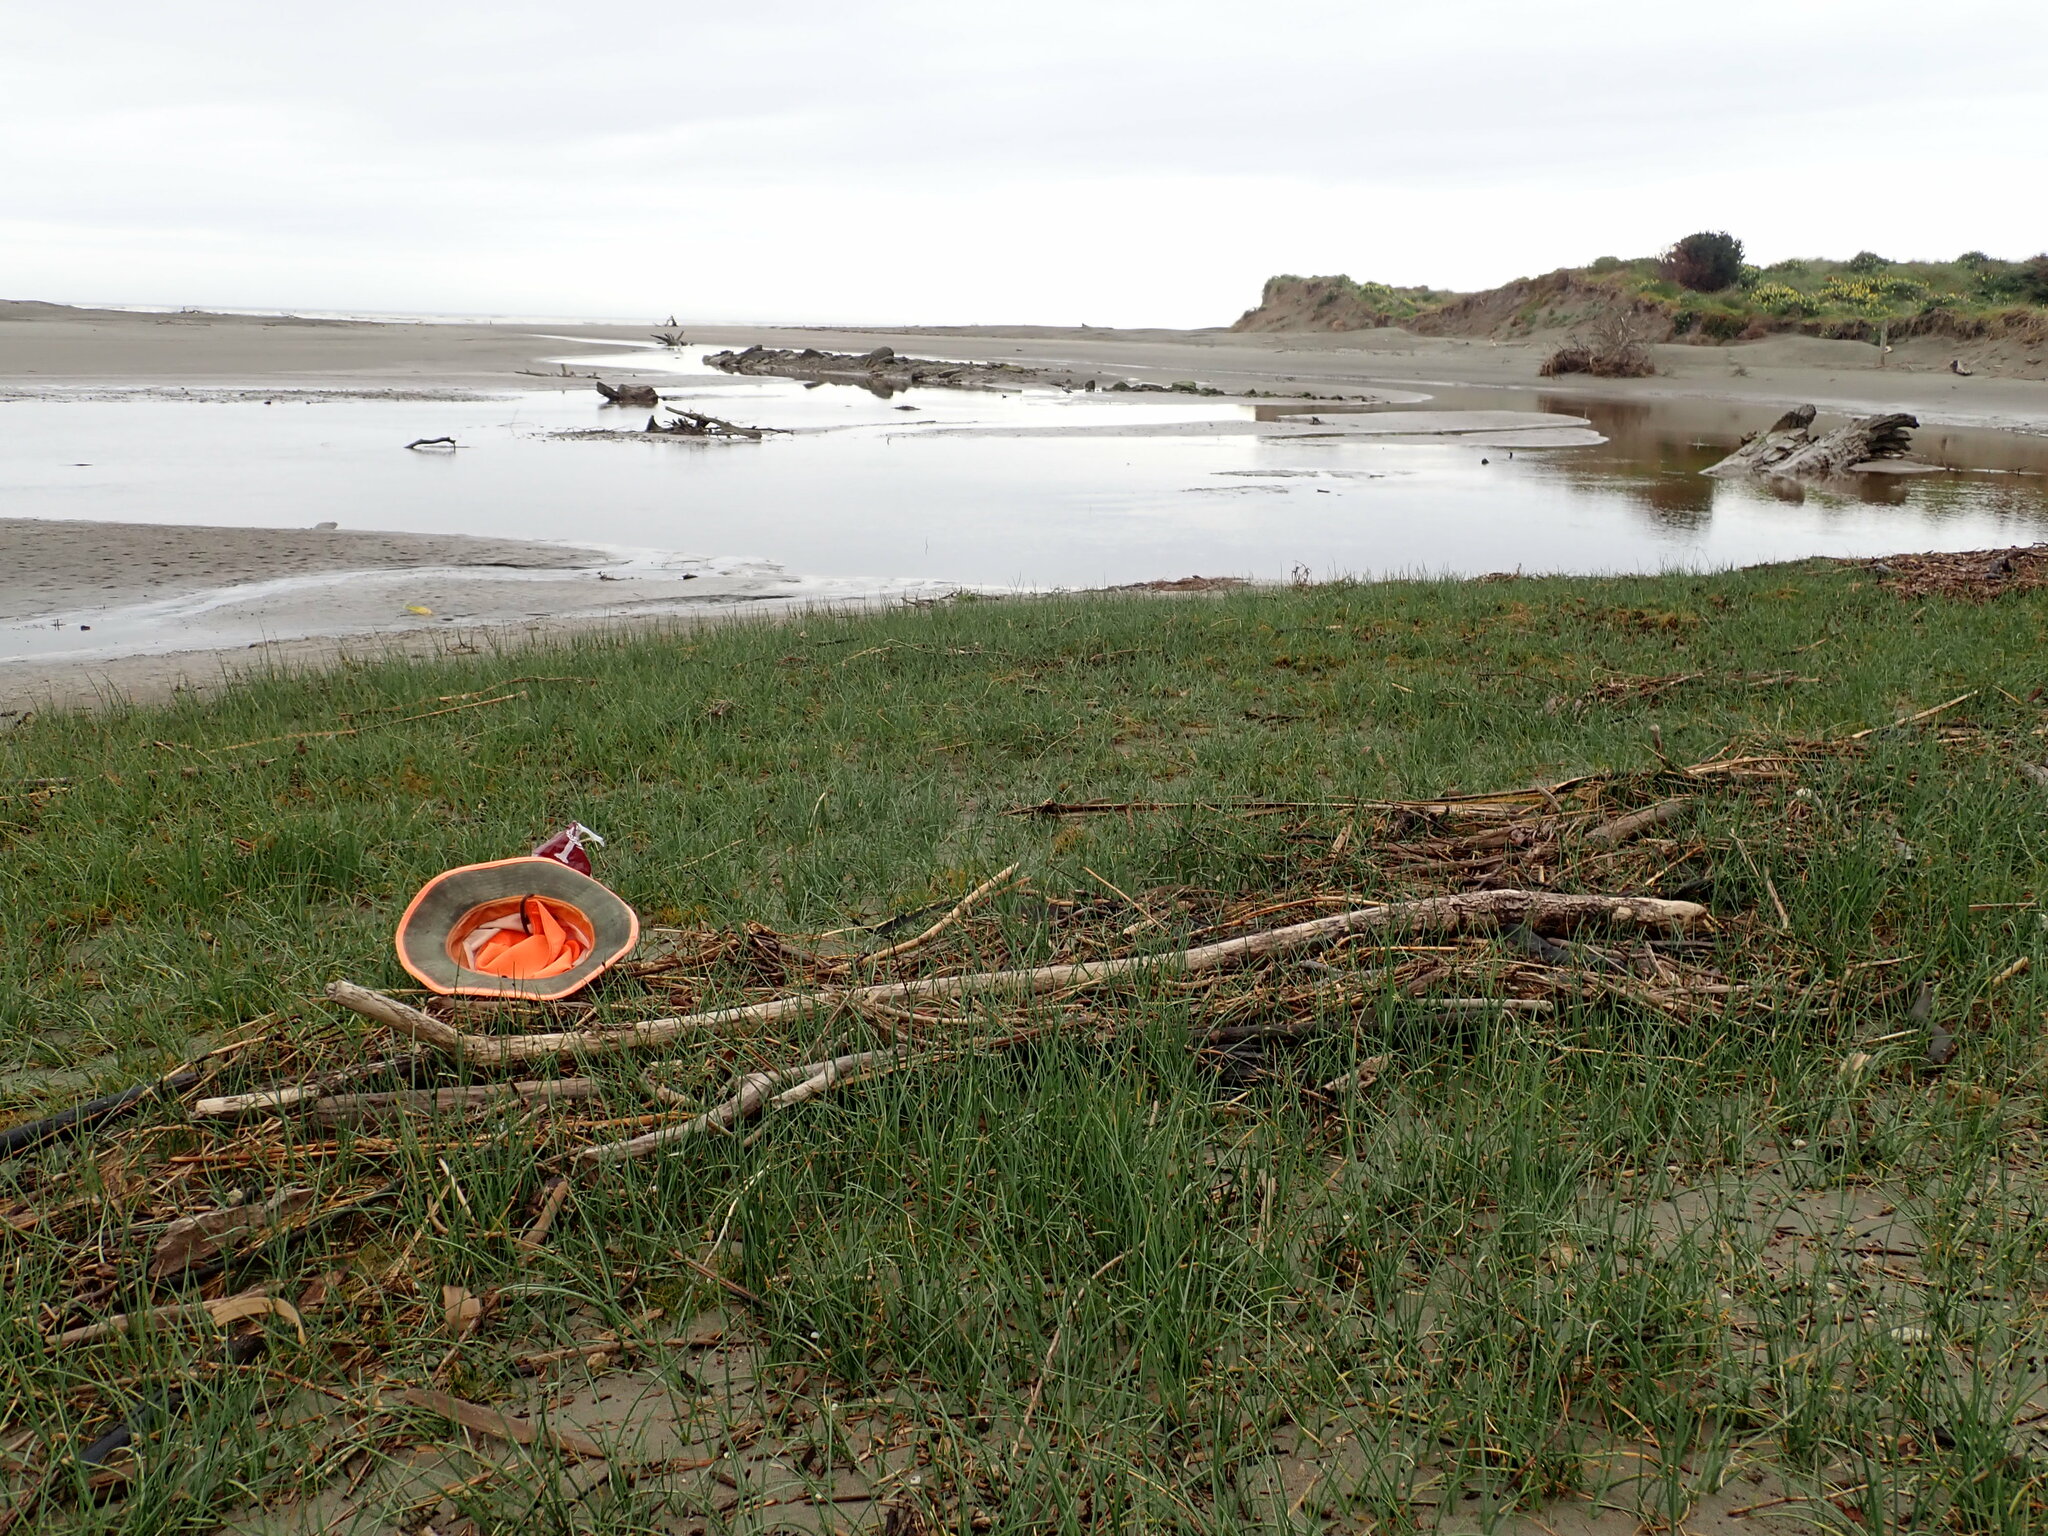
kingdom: Plantae
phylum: Tracheophyta
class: Magnoliopsida
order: Asterales
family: Campanulaceae
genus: Lobelia
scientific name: Lobelia anceps
